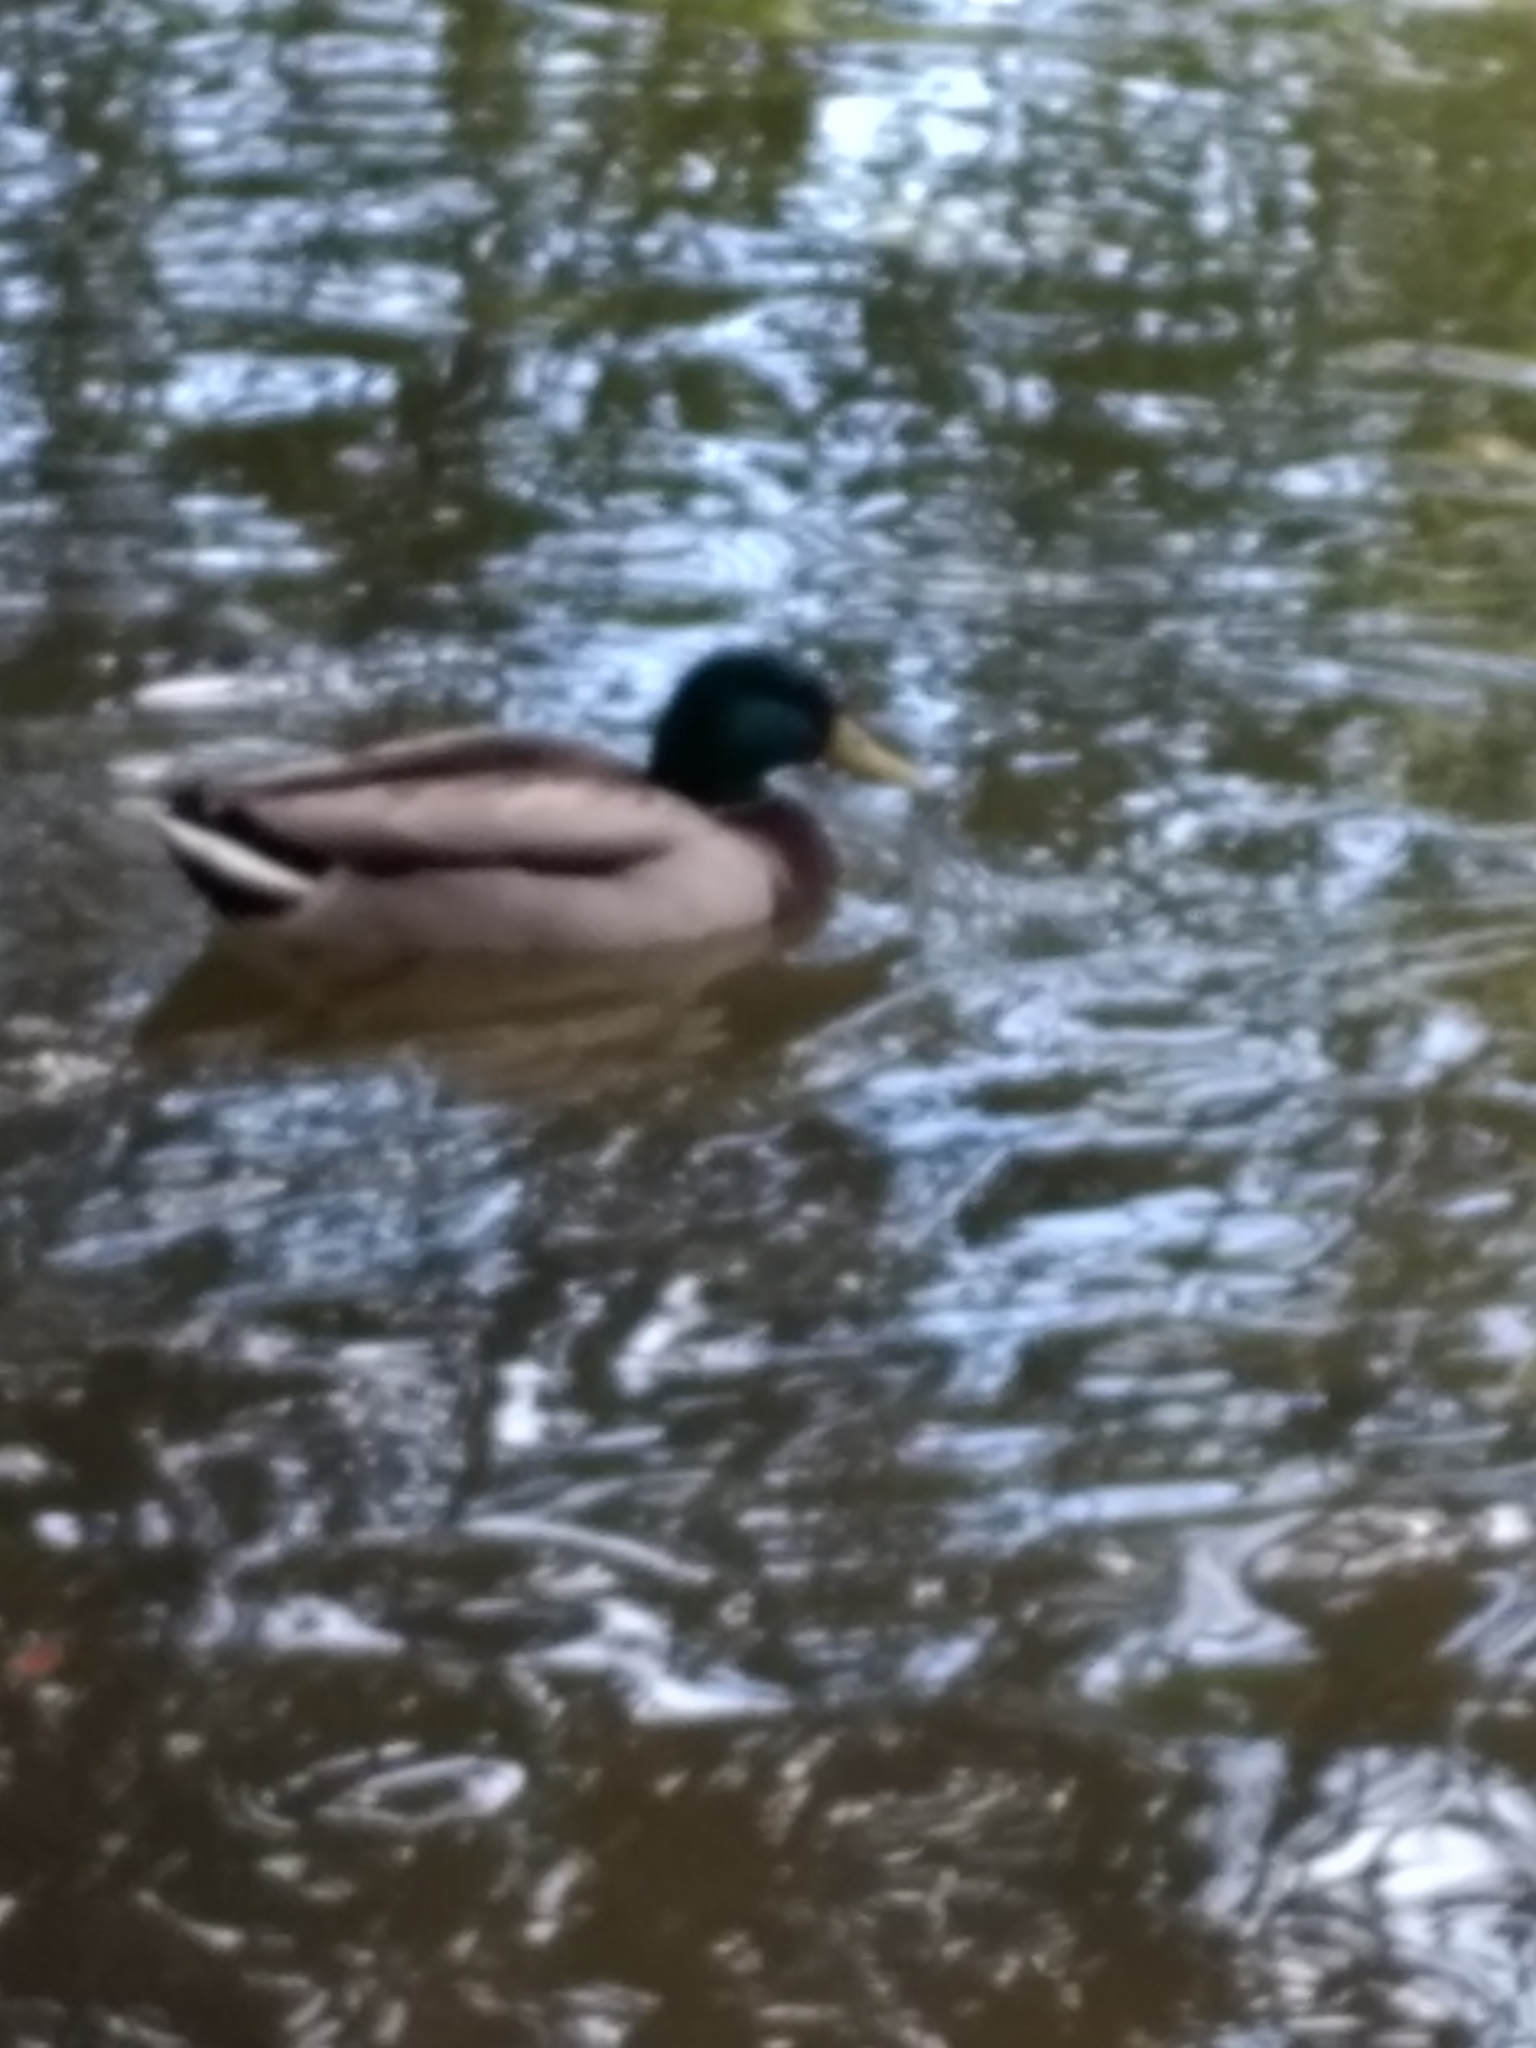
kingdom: Animalia
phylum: Chordata
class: Aves
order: Anseriformes
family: Anatidae
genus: Anas
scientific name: Anas platyrhynchos
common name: Mallard
